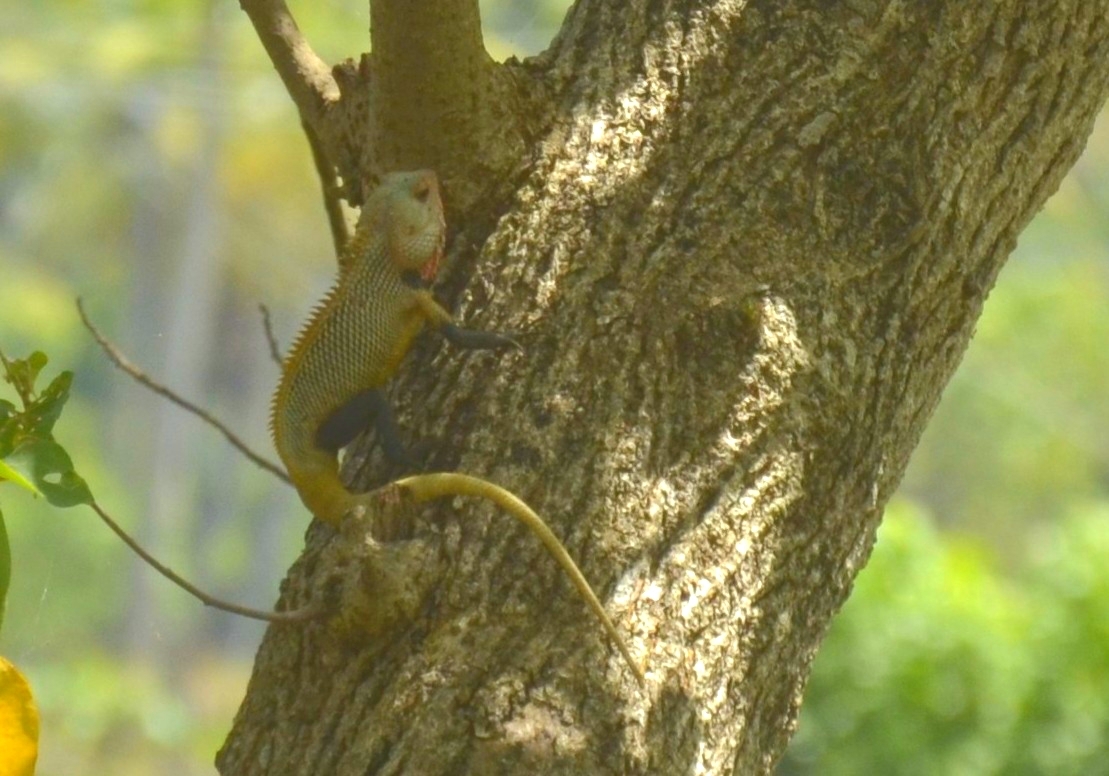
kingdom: Animalia
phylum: Chordata
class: Squamata
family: Agamidae
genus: Calotes
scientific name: Calotes versicolor
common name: Oriental garden lizard
